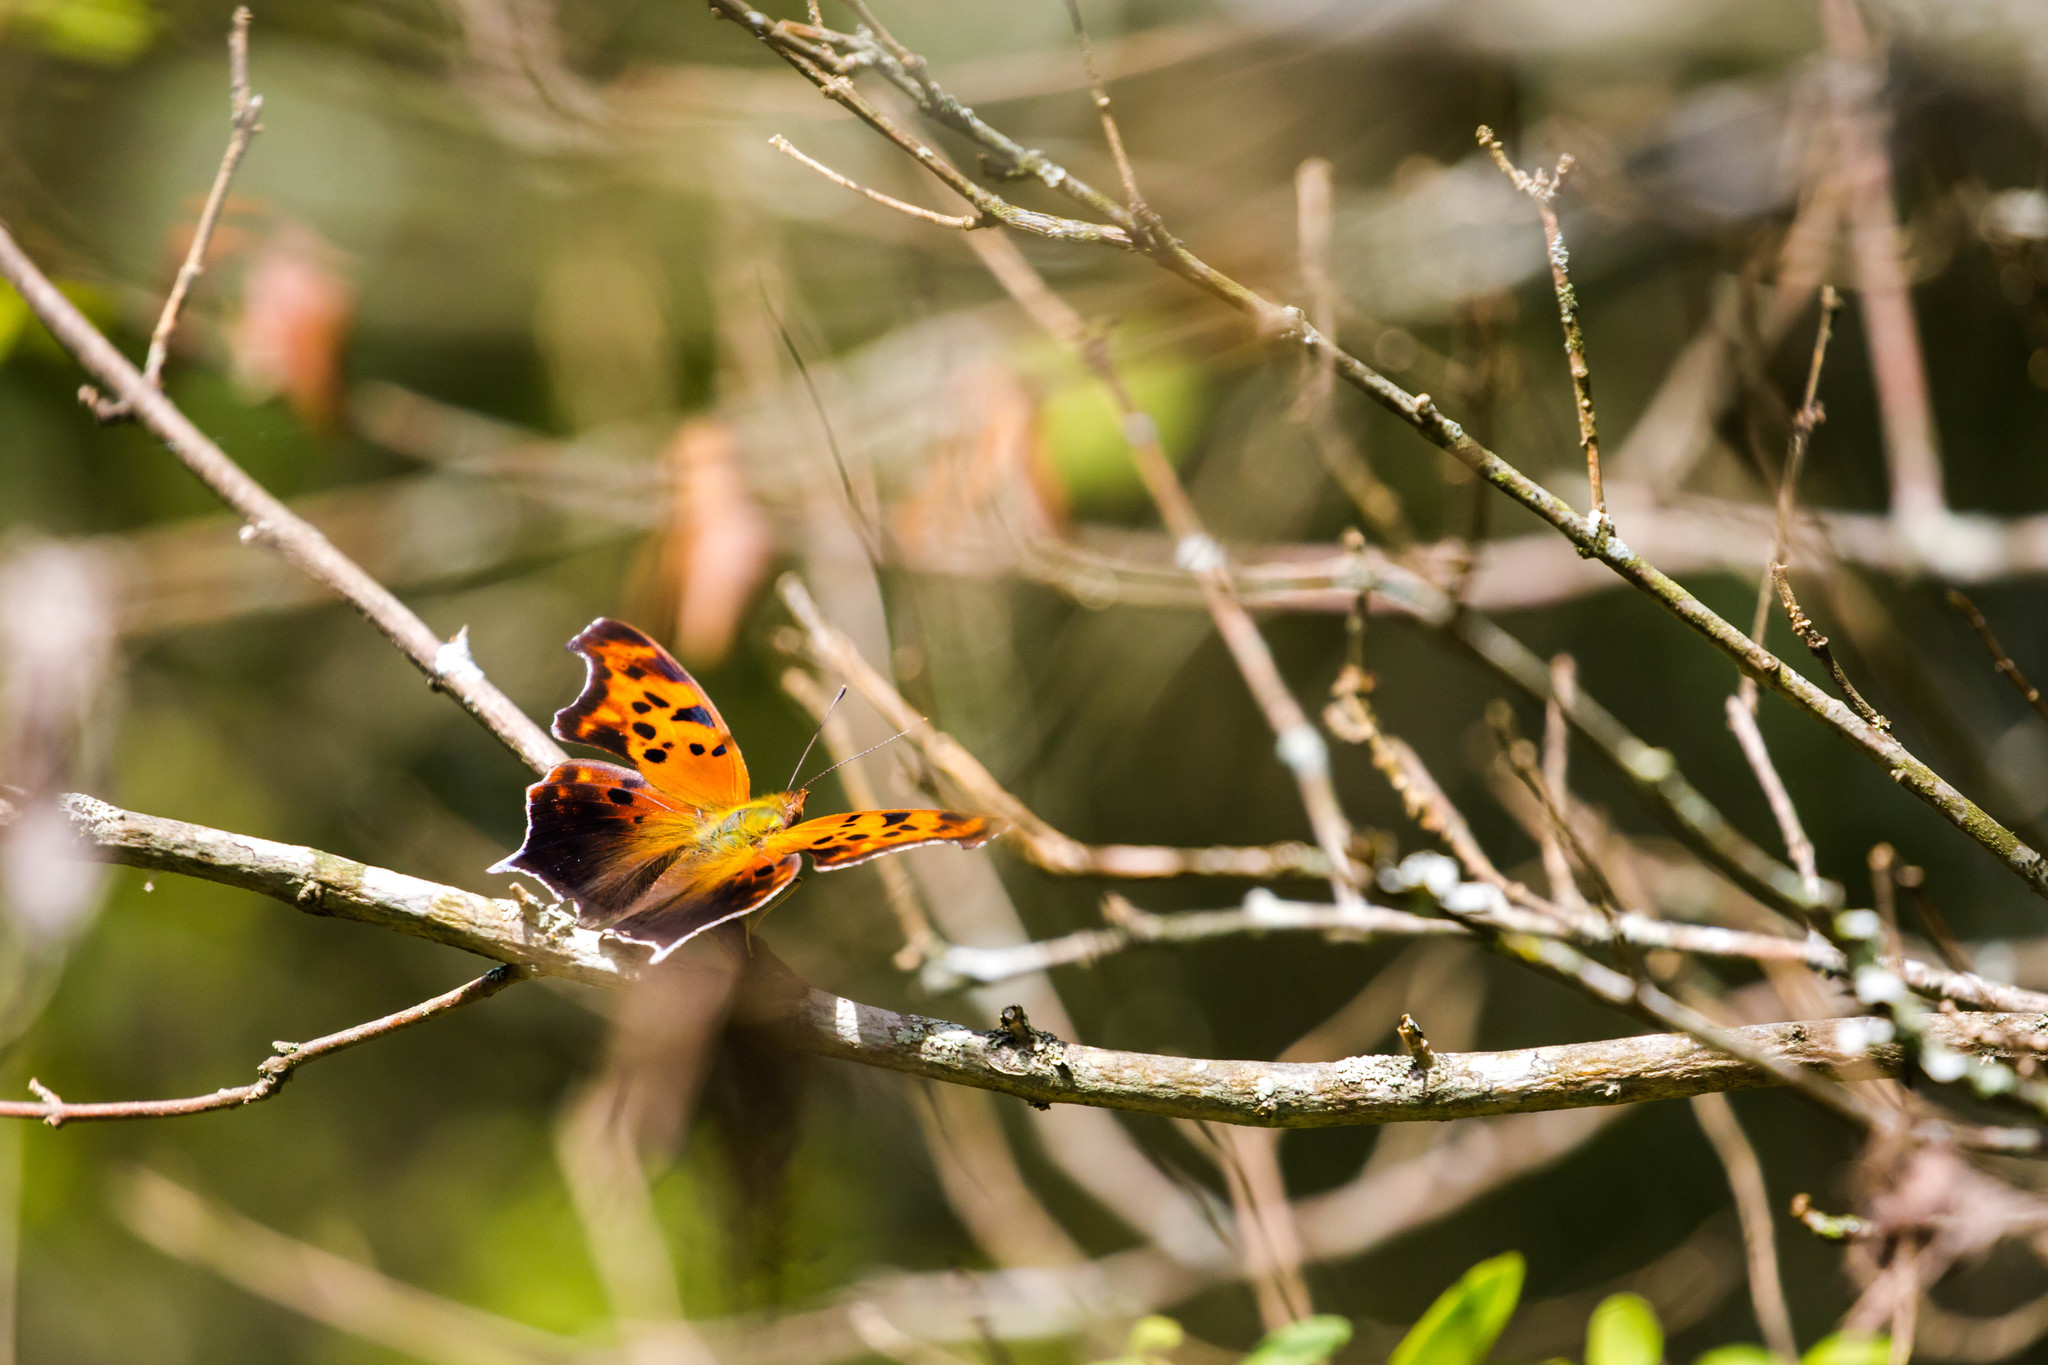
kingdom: Animalia
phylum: Arthropoda
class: Insecta
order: Lepidoptera
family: Nymphalidae
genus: Polygonia
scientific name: Polygonia interrogationis
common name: Question mark
